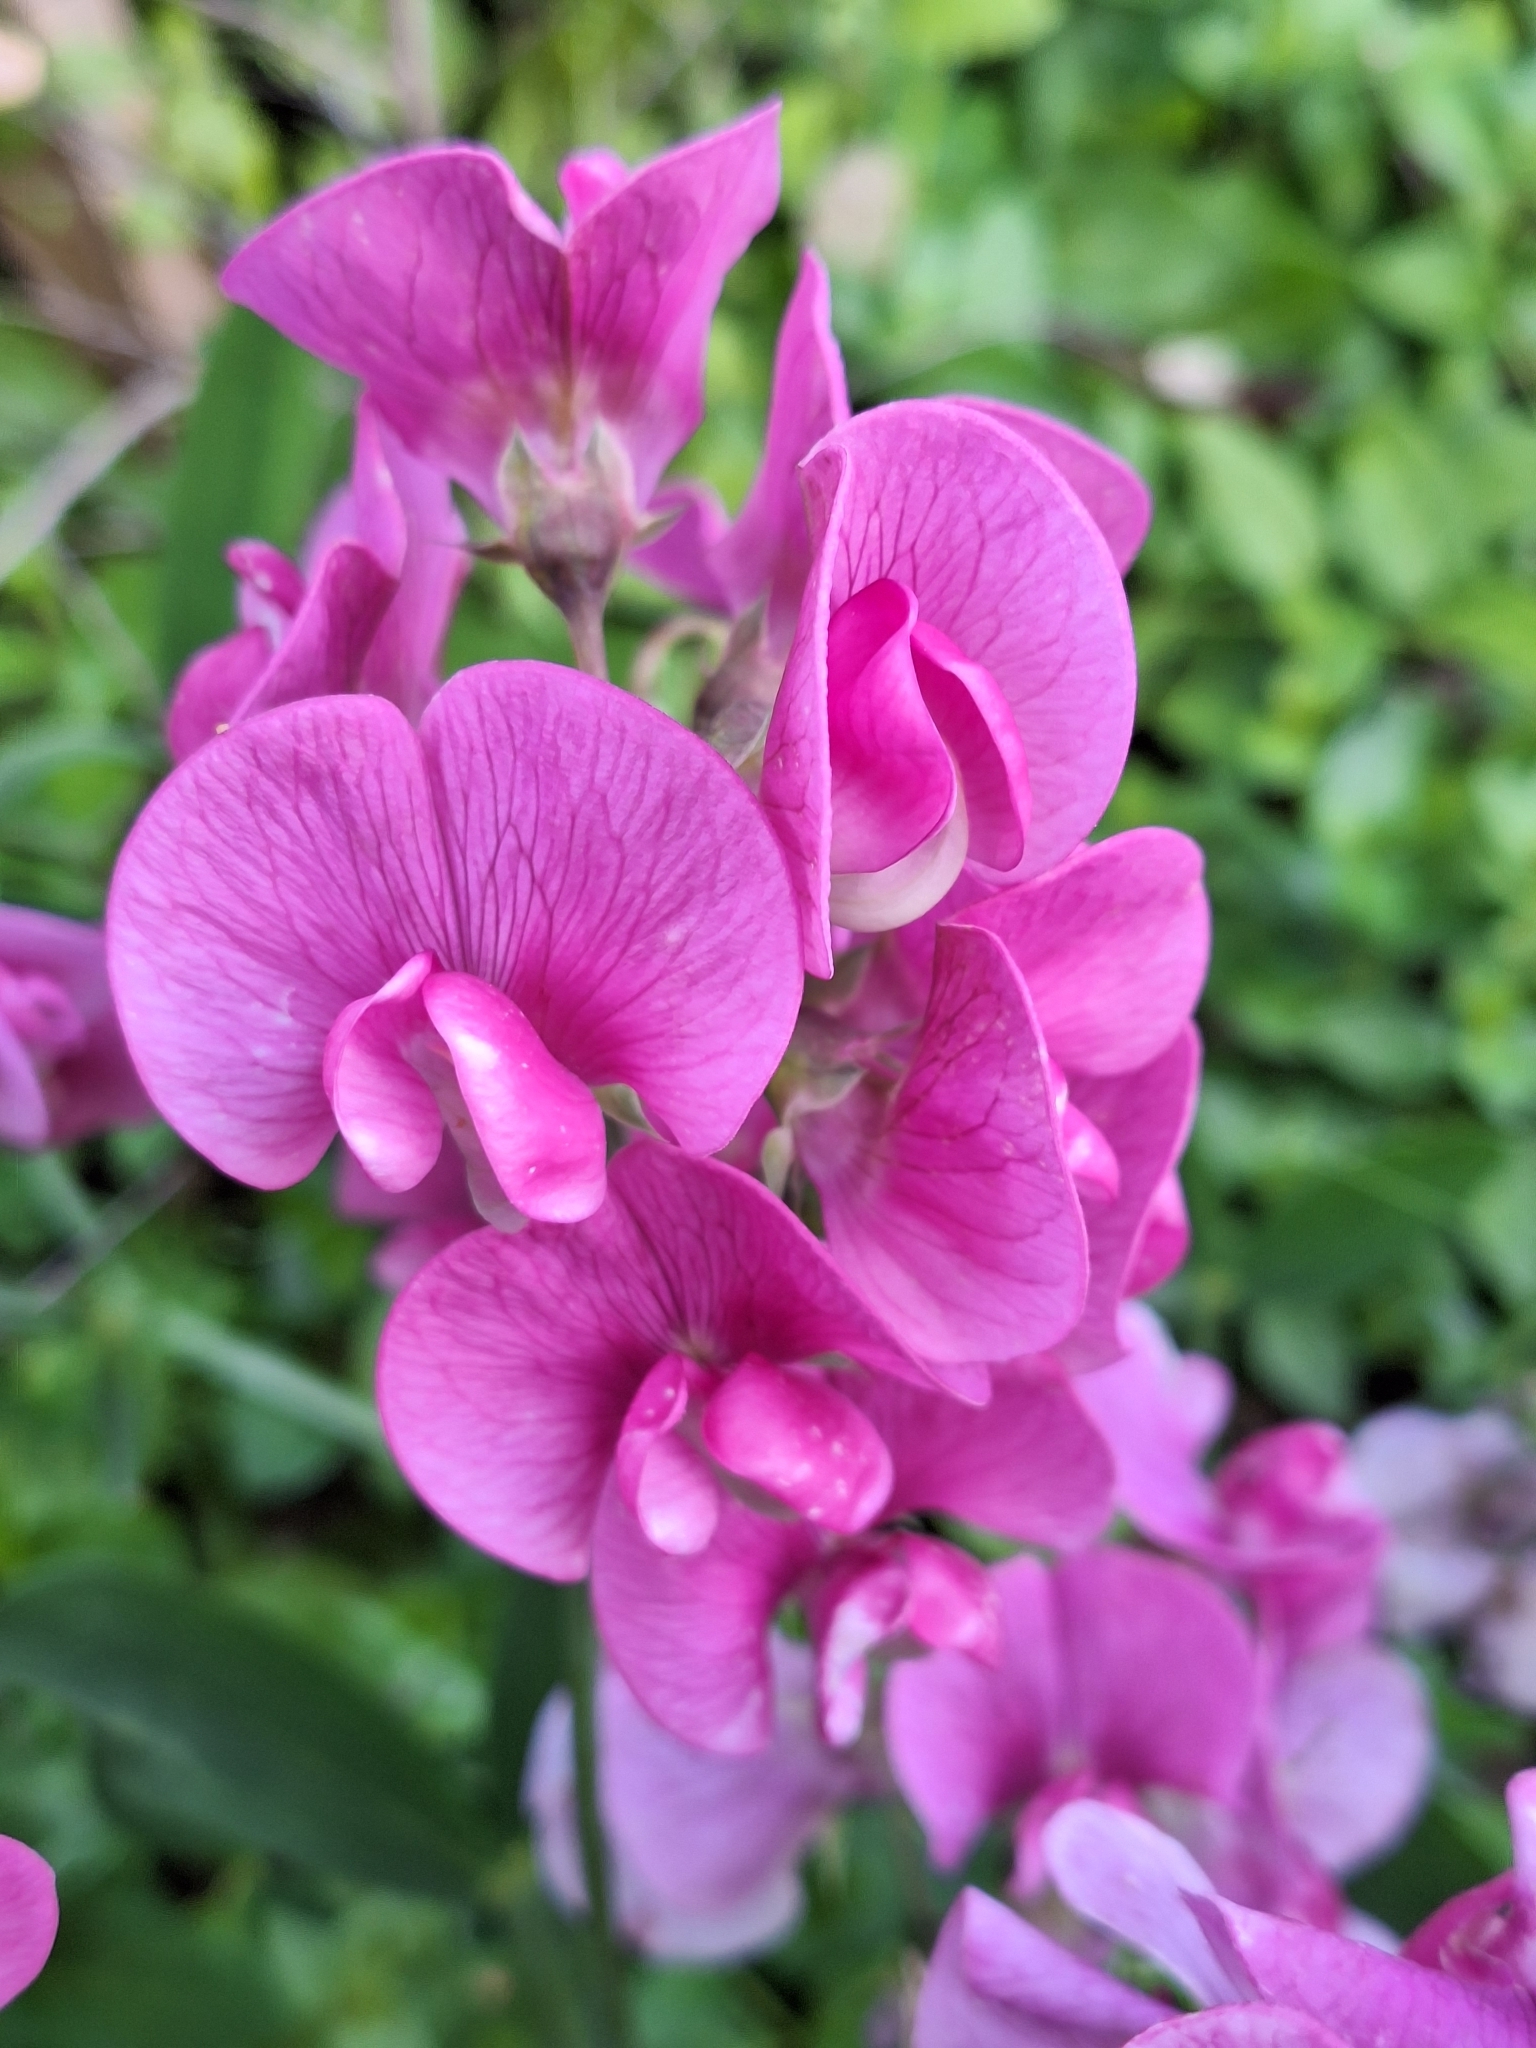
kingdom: Plantae
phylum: Tracheophyta
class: Magnoliopsida
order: Fabales
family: Fabaceae
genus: Lathyrus
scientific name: Lathyrus latifolius
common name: Perennial pea
